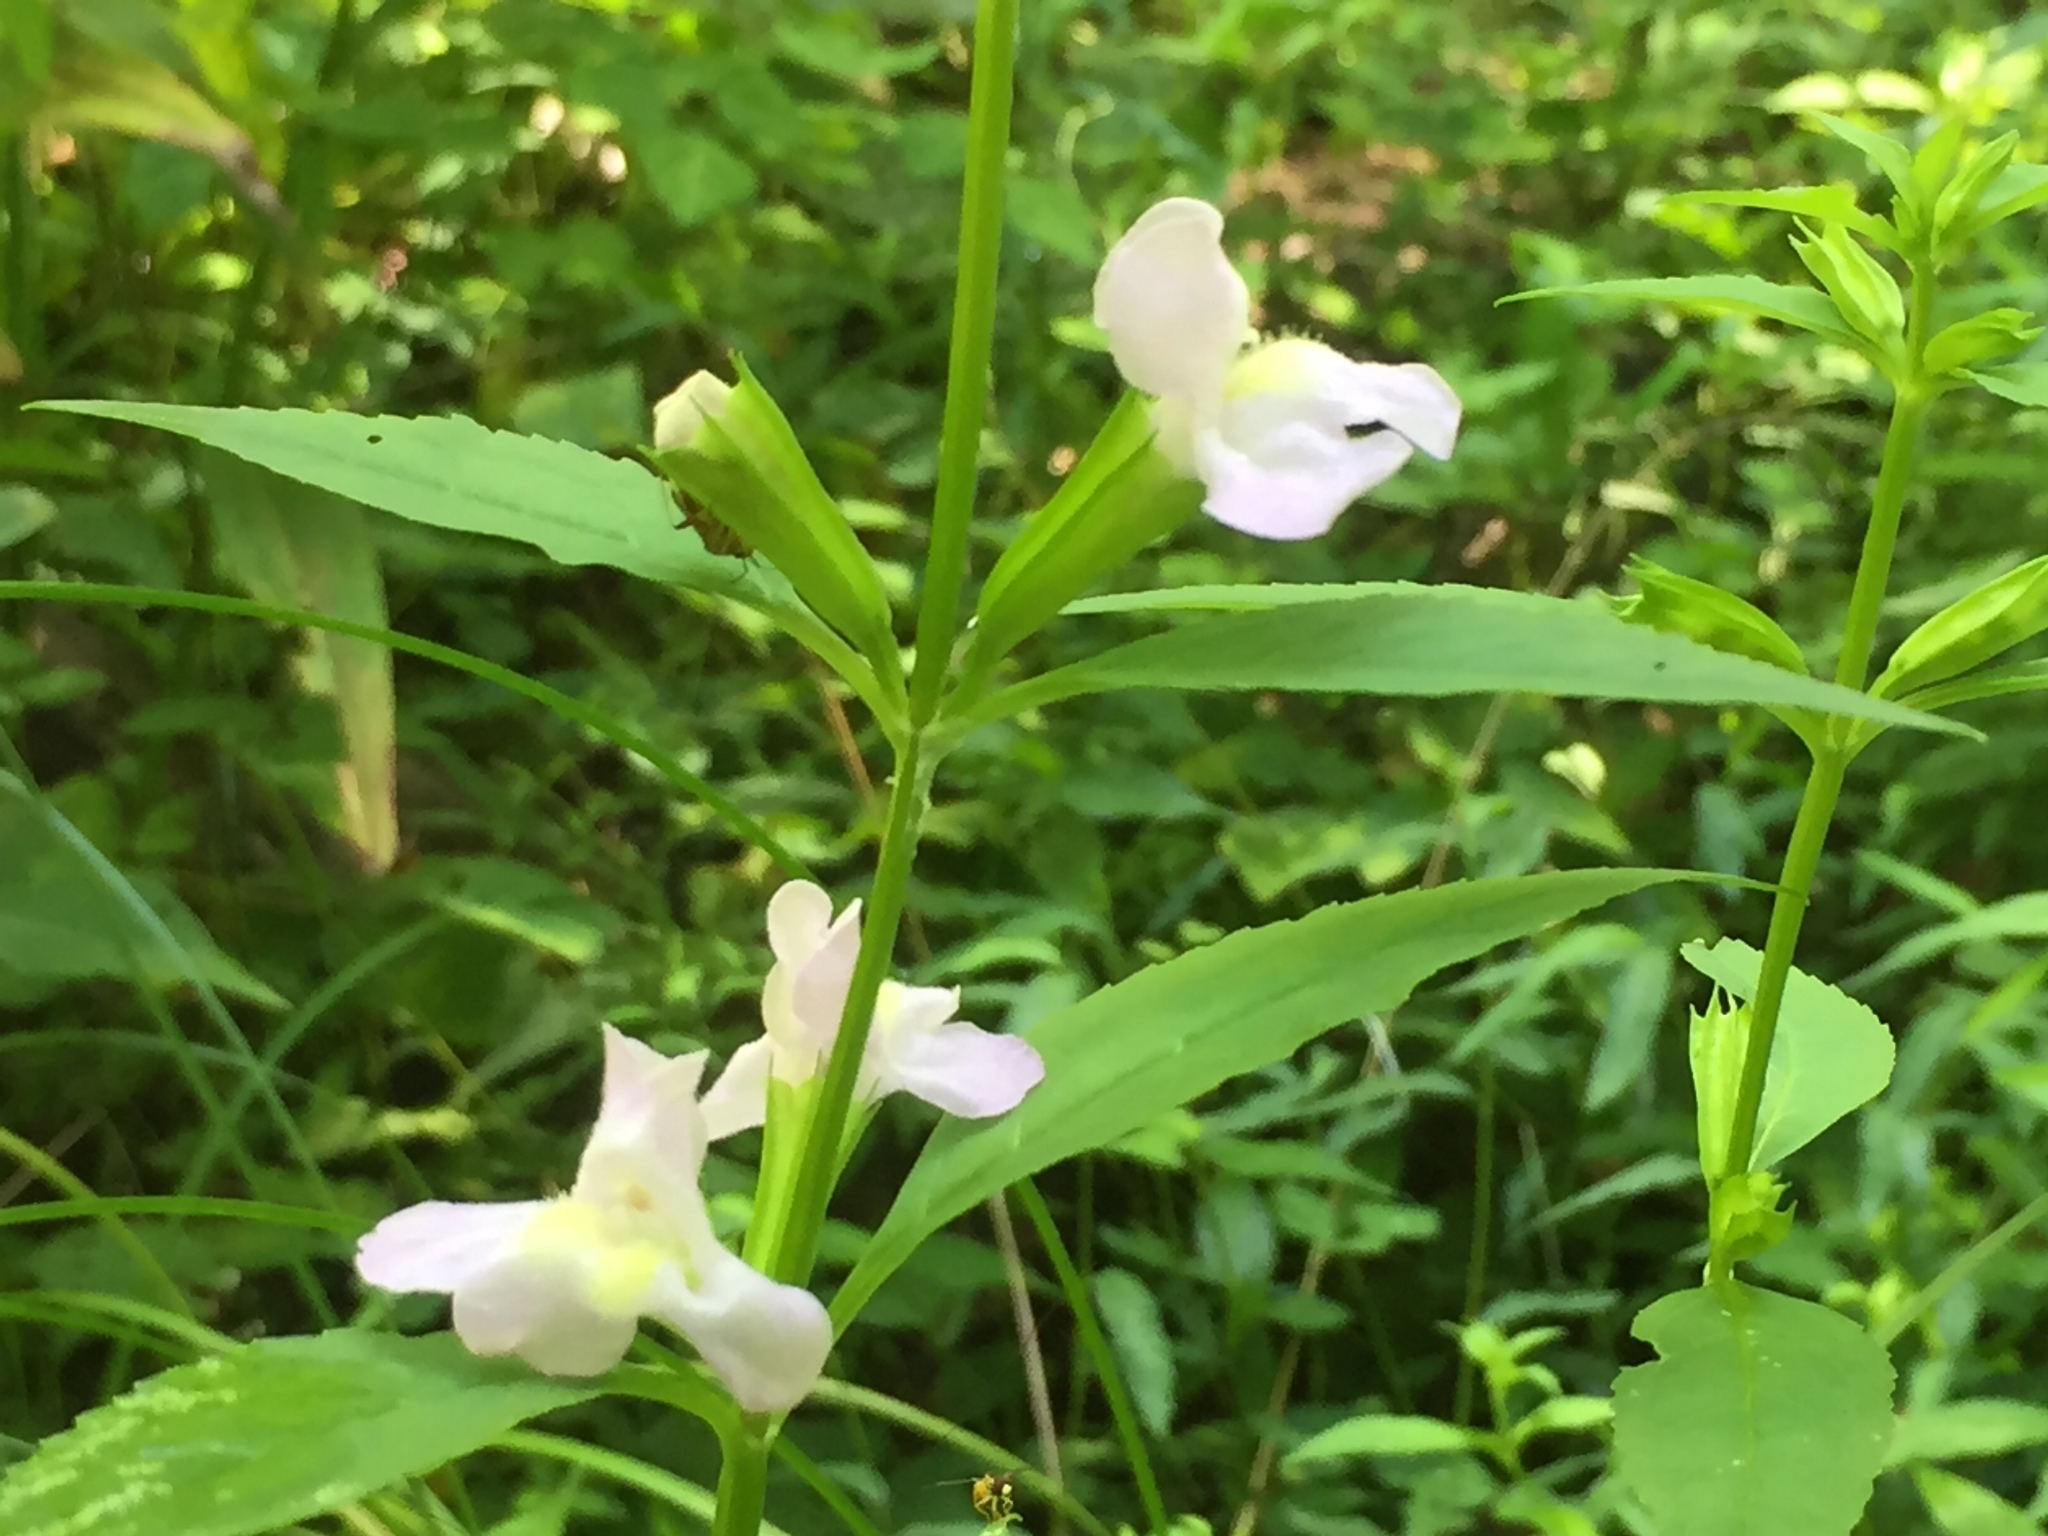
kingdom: Plantae
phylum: Tracheophyta
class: Magnoliopsida
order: Lamiales
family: Phrymaceae
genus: Mimulus
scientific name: Mimulus alatus
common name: Sharp-wing monkey-flower
